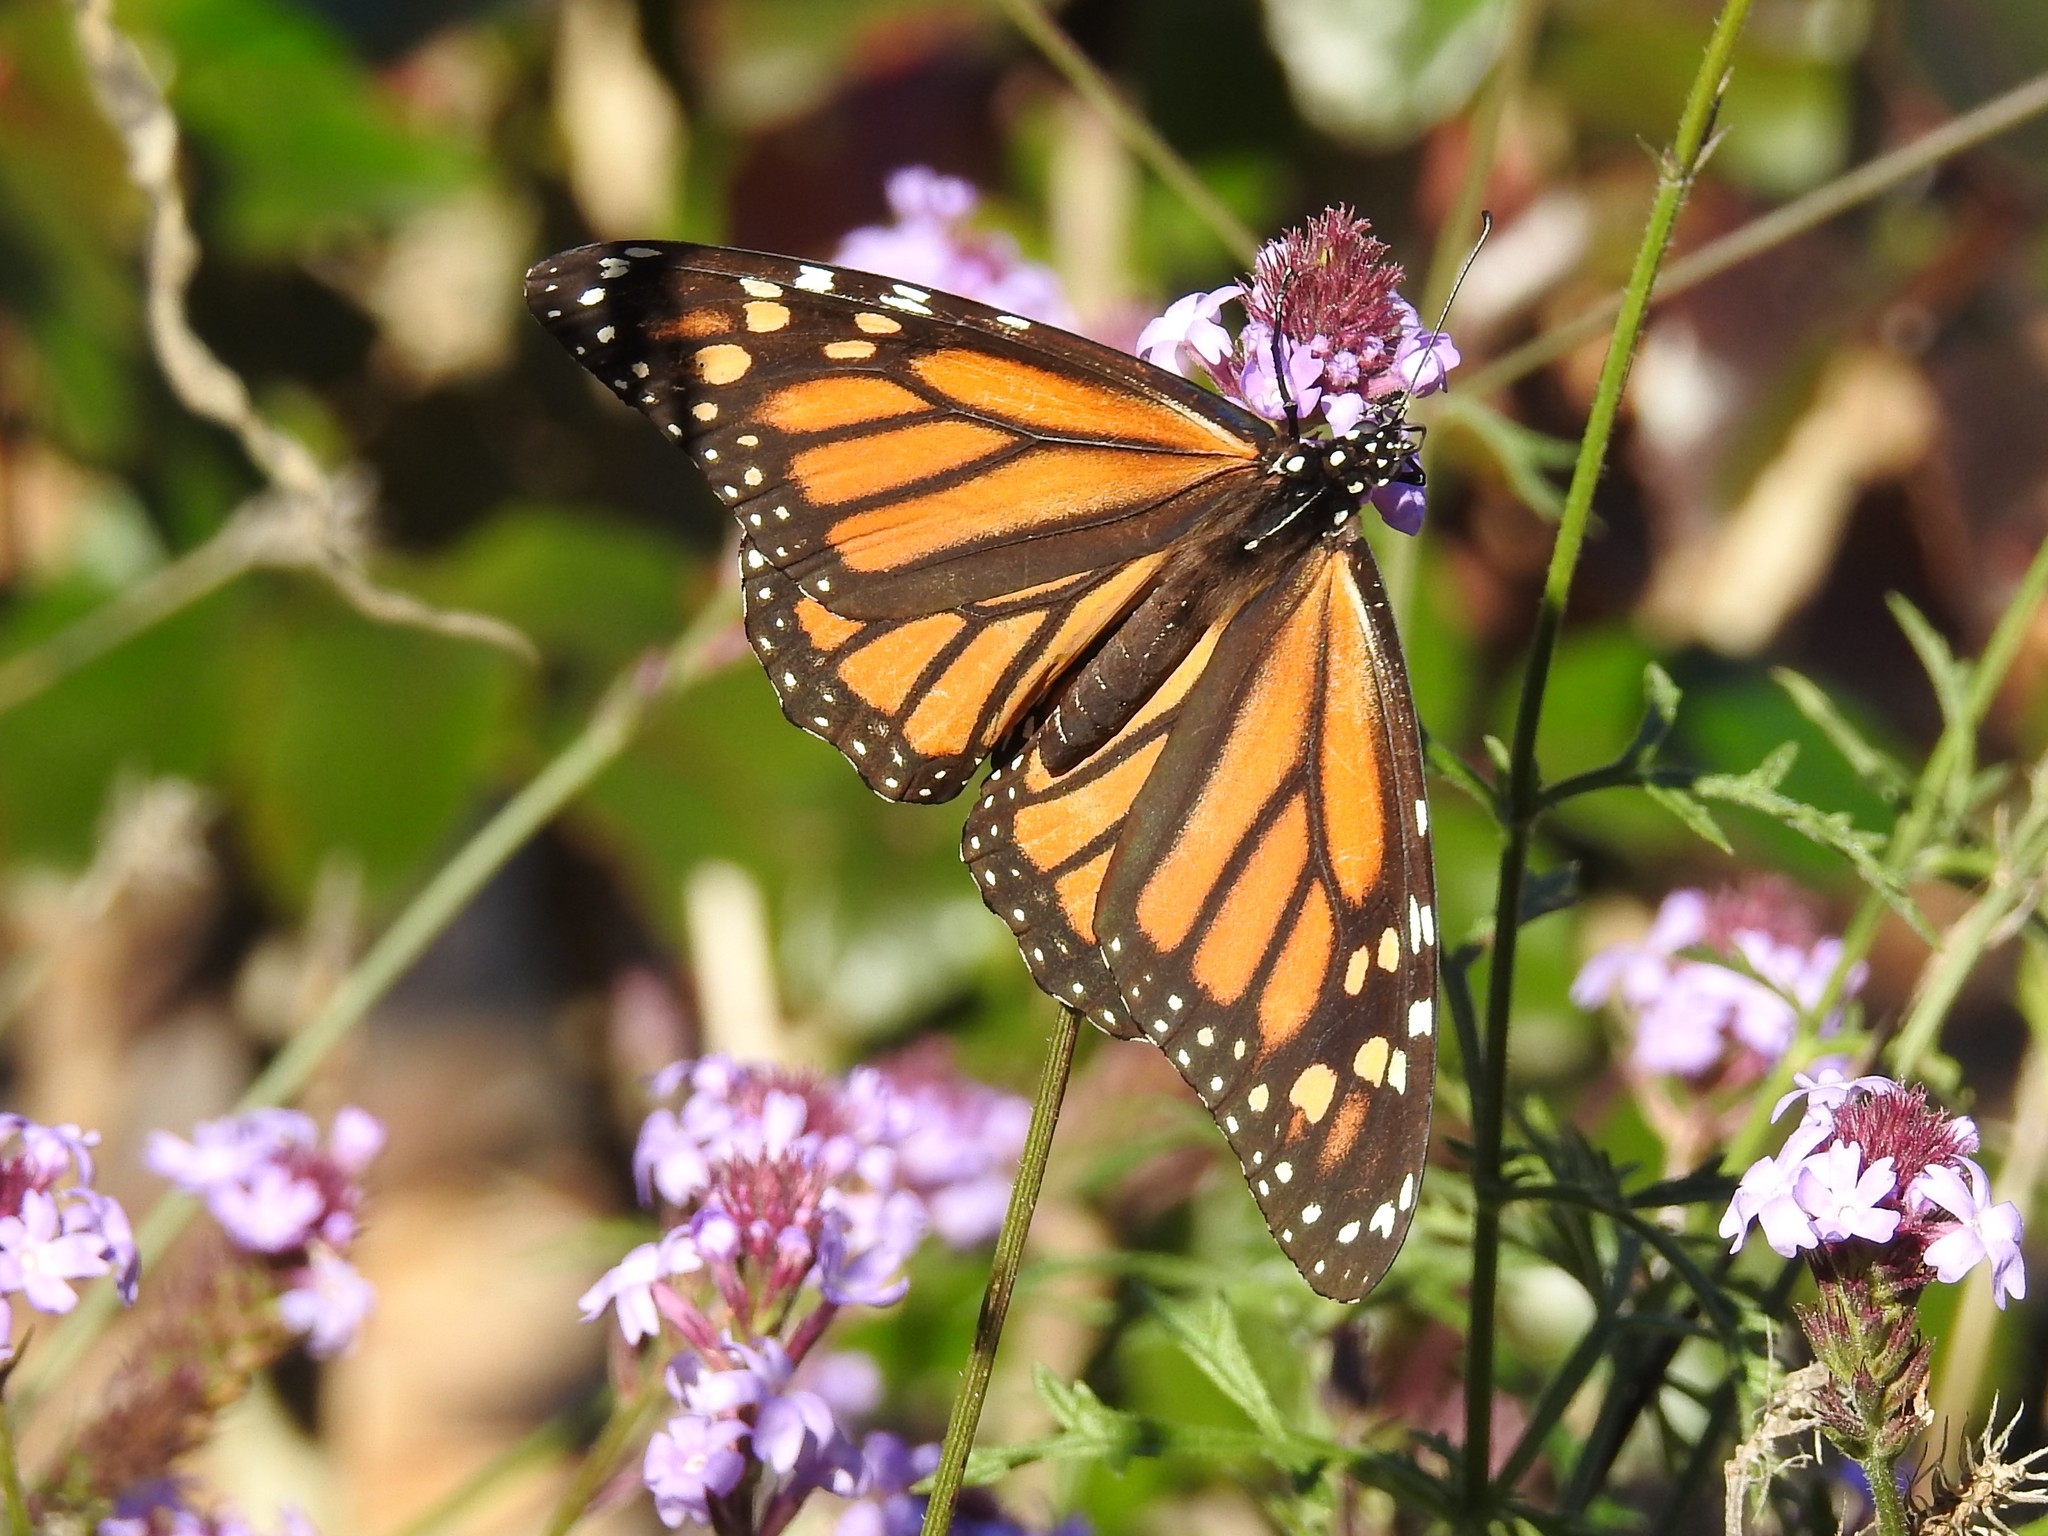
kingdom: Animalia
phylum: Arthropoda
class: Insecta
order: Lepidoptera
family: Nymphalidae
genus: Danaus
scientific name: Danaus plexippus
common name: Monarch
